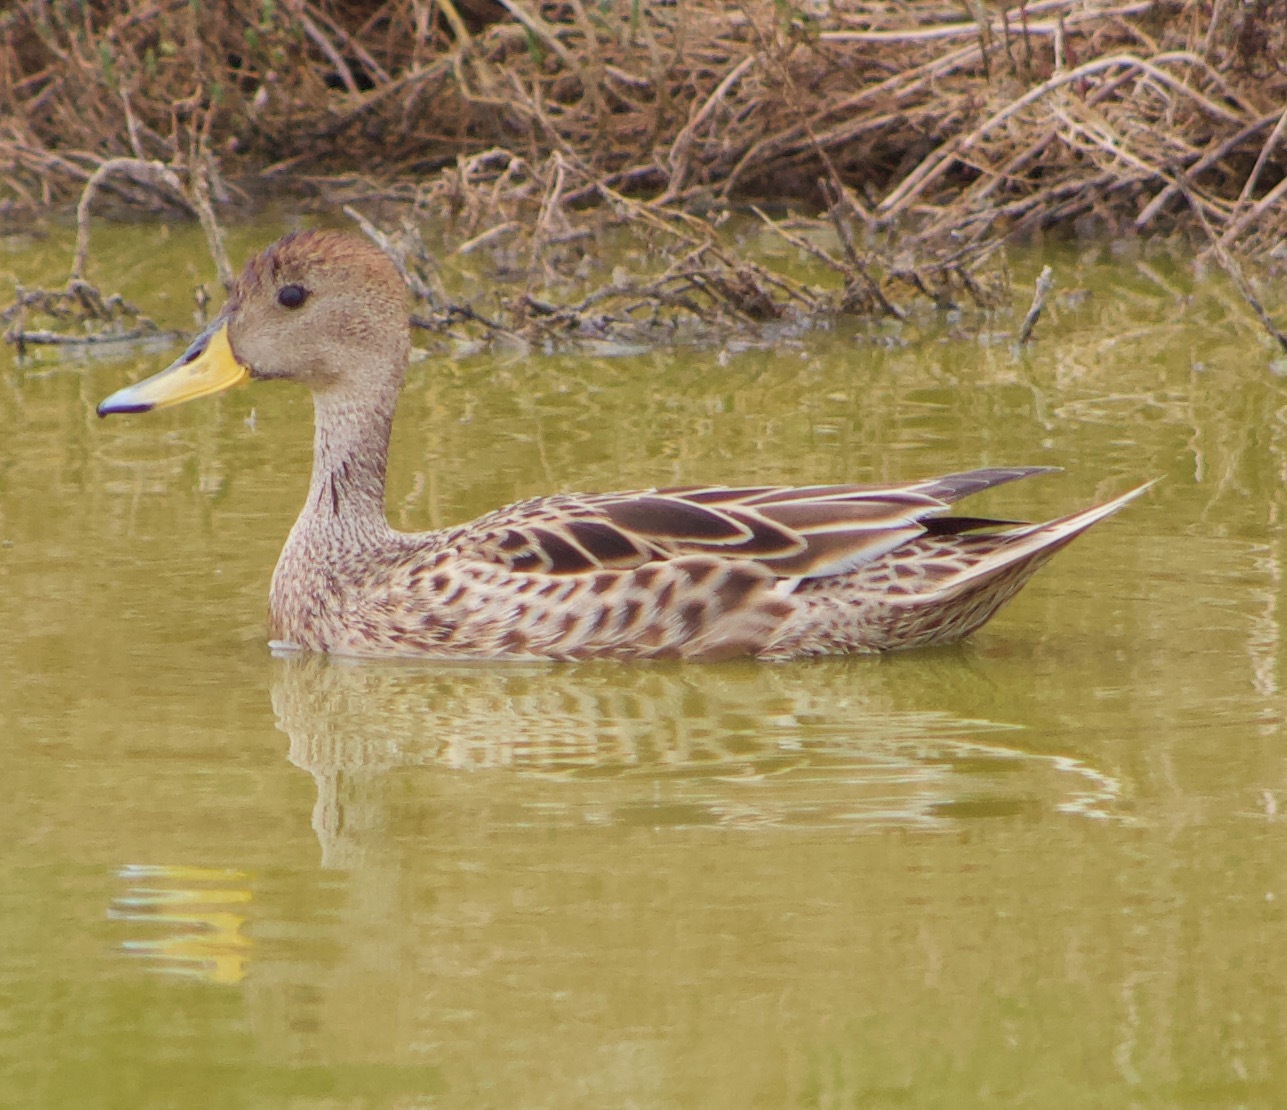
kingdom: Animalia
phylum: Chordata
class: Aves
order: Anseriformes
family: Anatidae
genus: Anas
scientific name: Anas georgica
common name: Yellow-billed pintail
